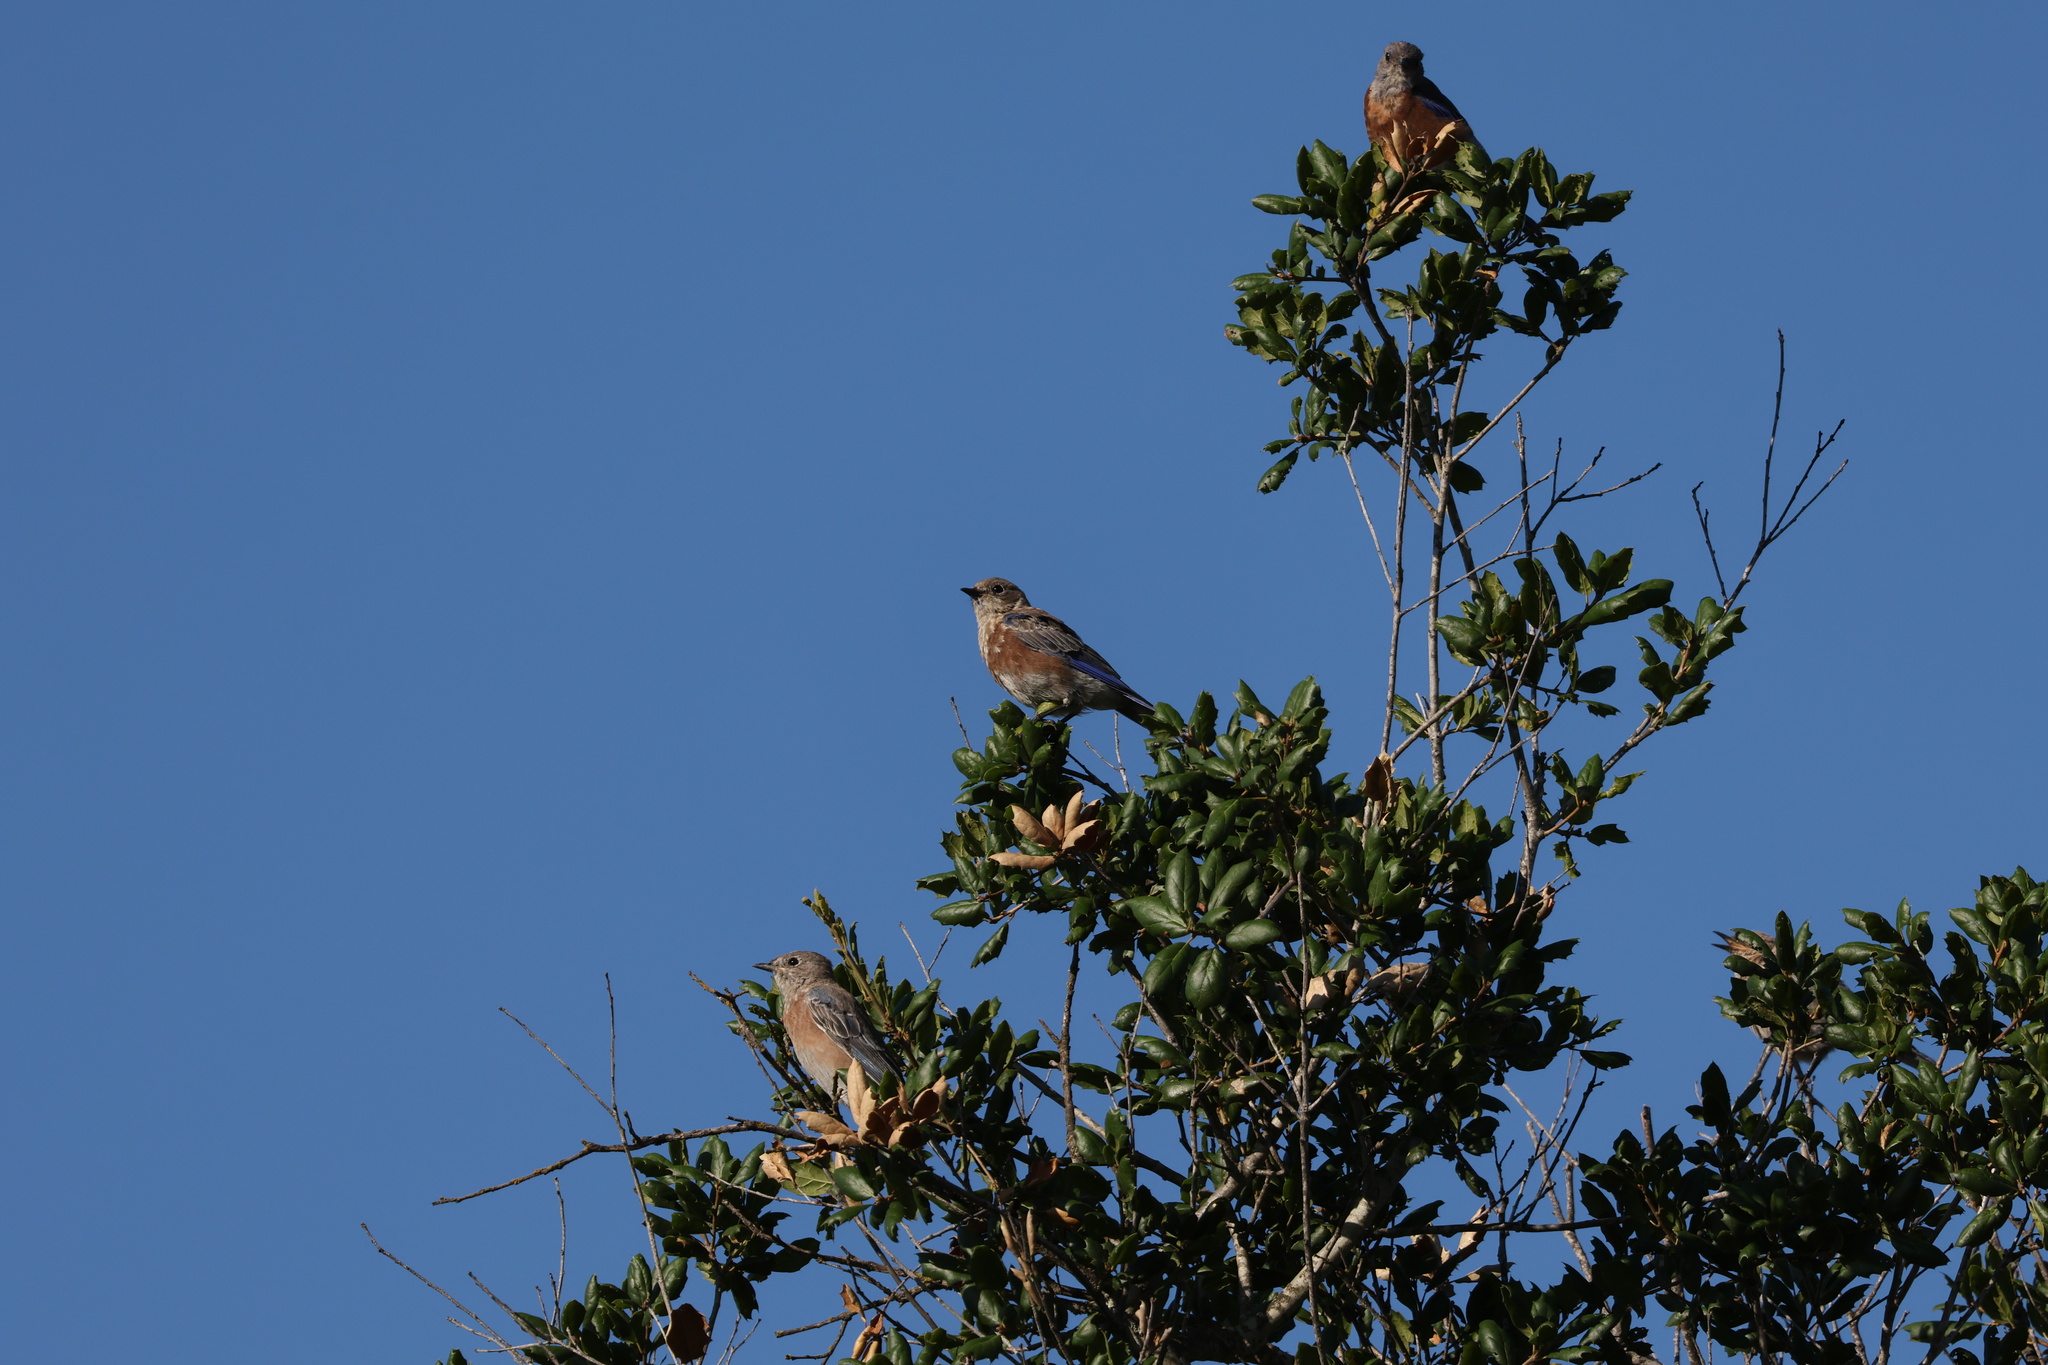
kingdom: Animalia
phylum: Chordata
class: Aves
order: Passeriformes
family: Turdidae
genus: Sialia
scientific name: Sialia mexicana
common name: Western bluebird
